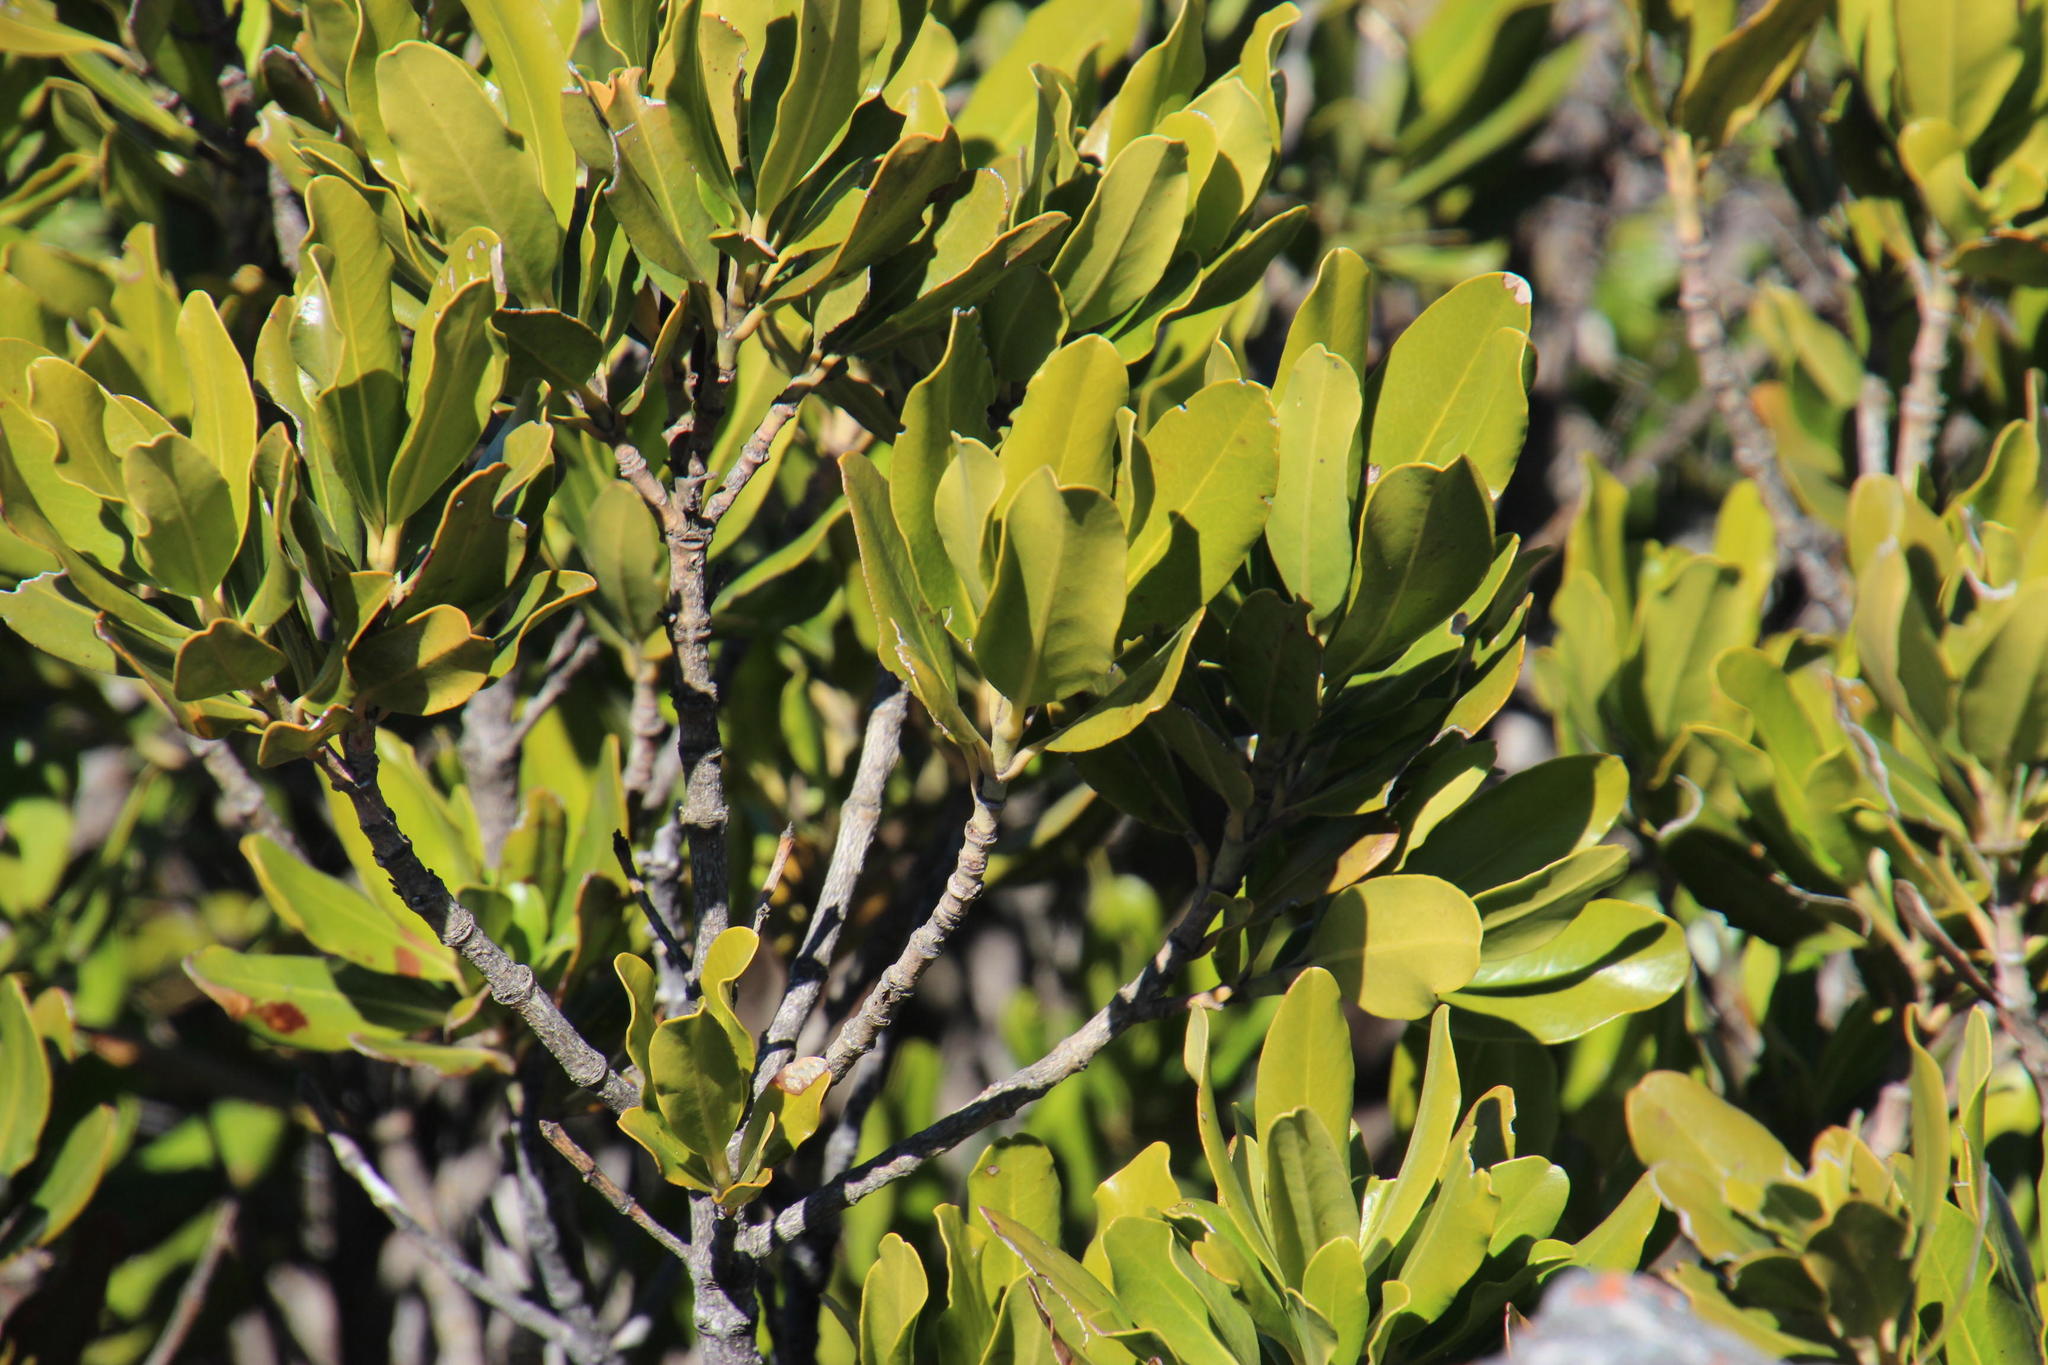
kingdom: Plantae
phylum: Tracheophyta
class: Magnoliopsida
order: Malpighiales
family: Picrodendraceae
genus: Hyaenanche
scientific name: Hyaenanche globosa
